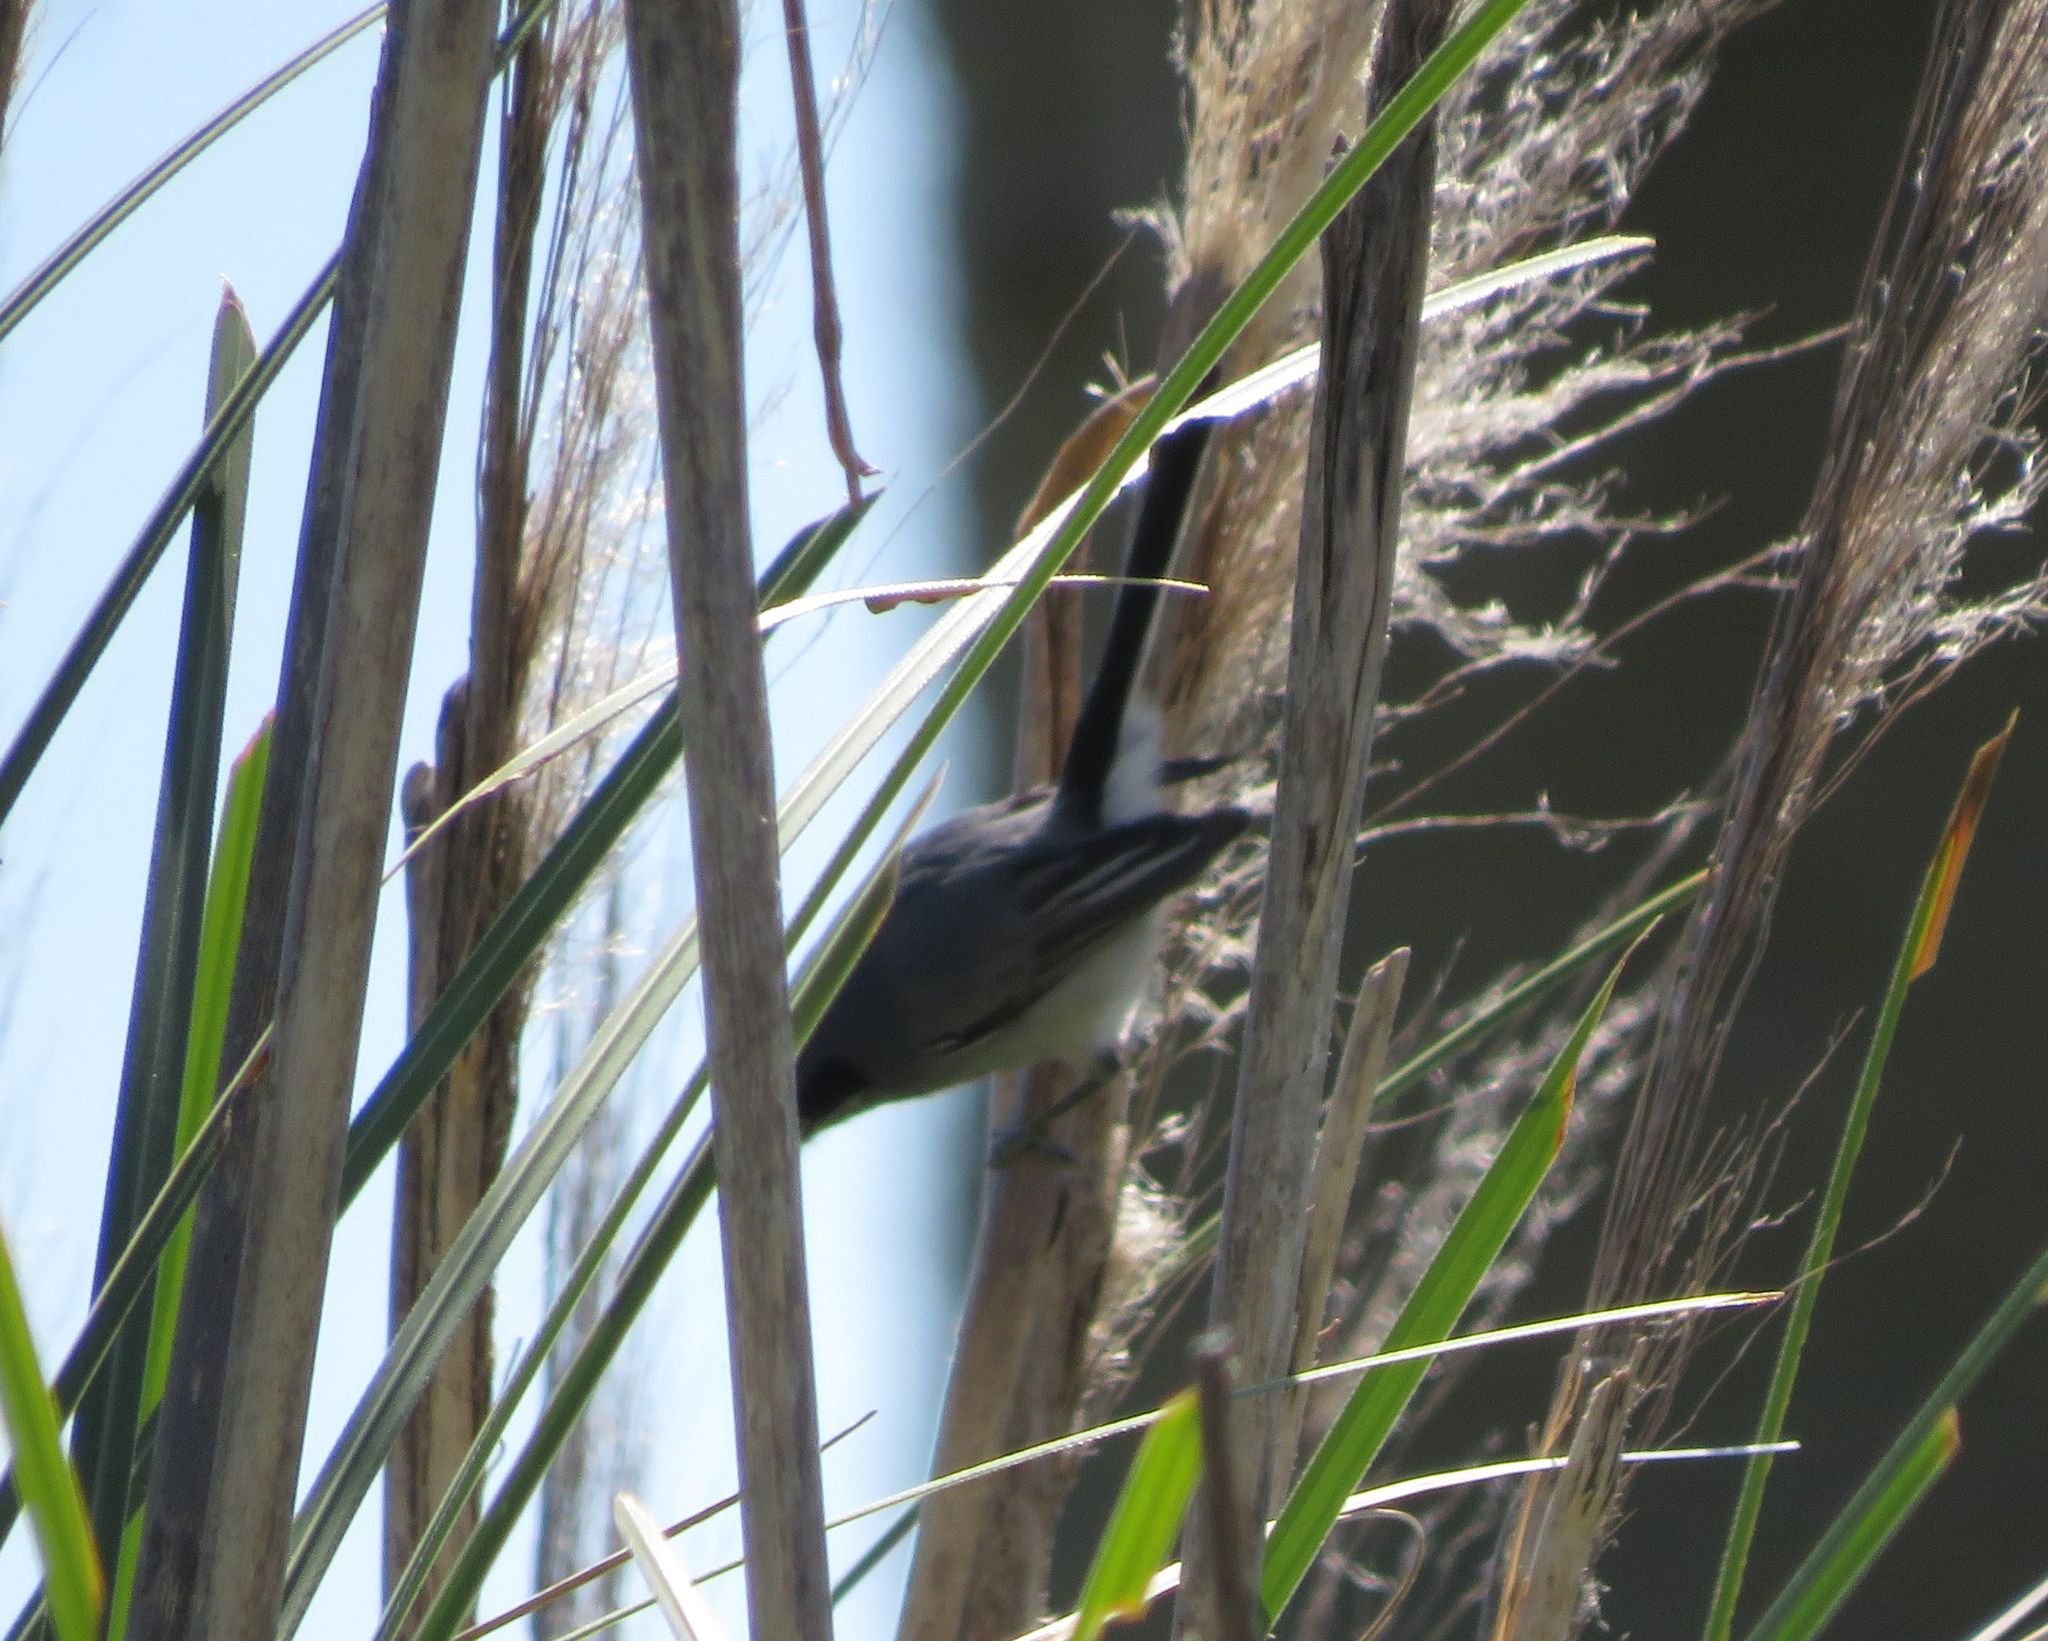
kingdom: Animalia
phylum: Chordata
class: Aves
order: Passeriformes
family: Polioptilidae
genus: Polioptila
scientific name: Polioptila dumicola
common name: Masked gnatcatcher
